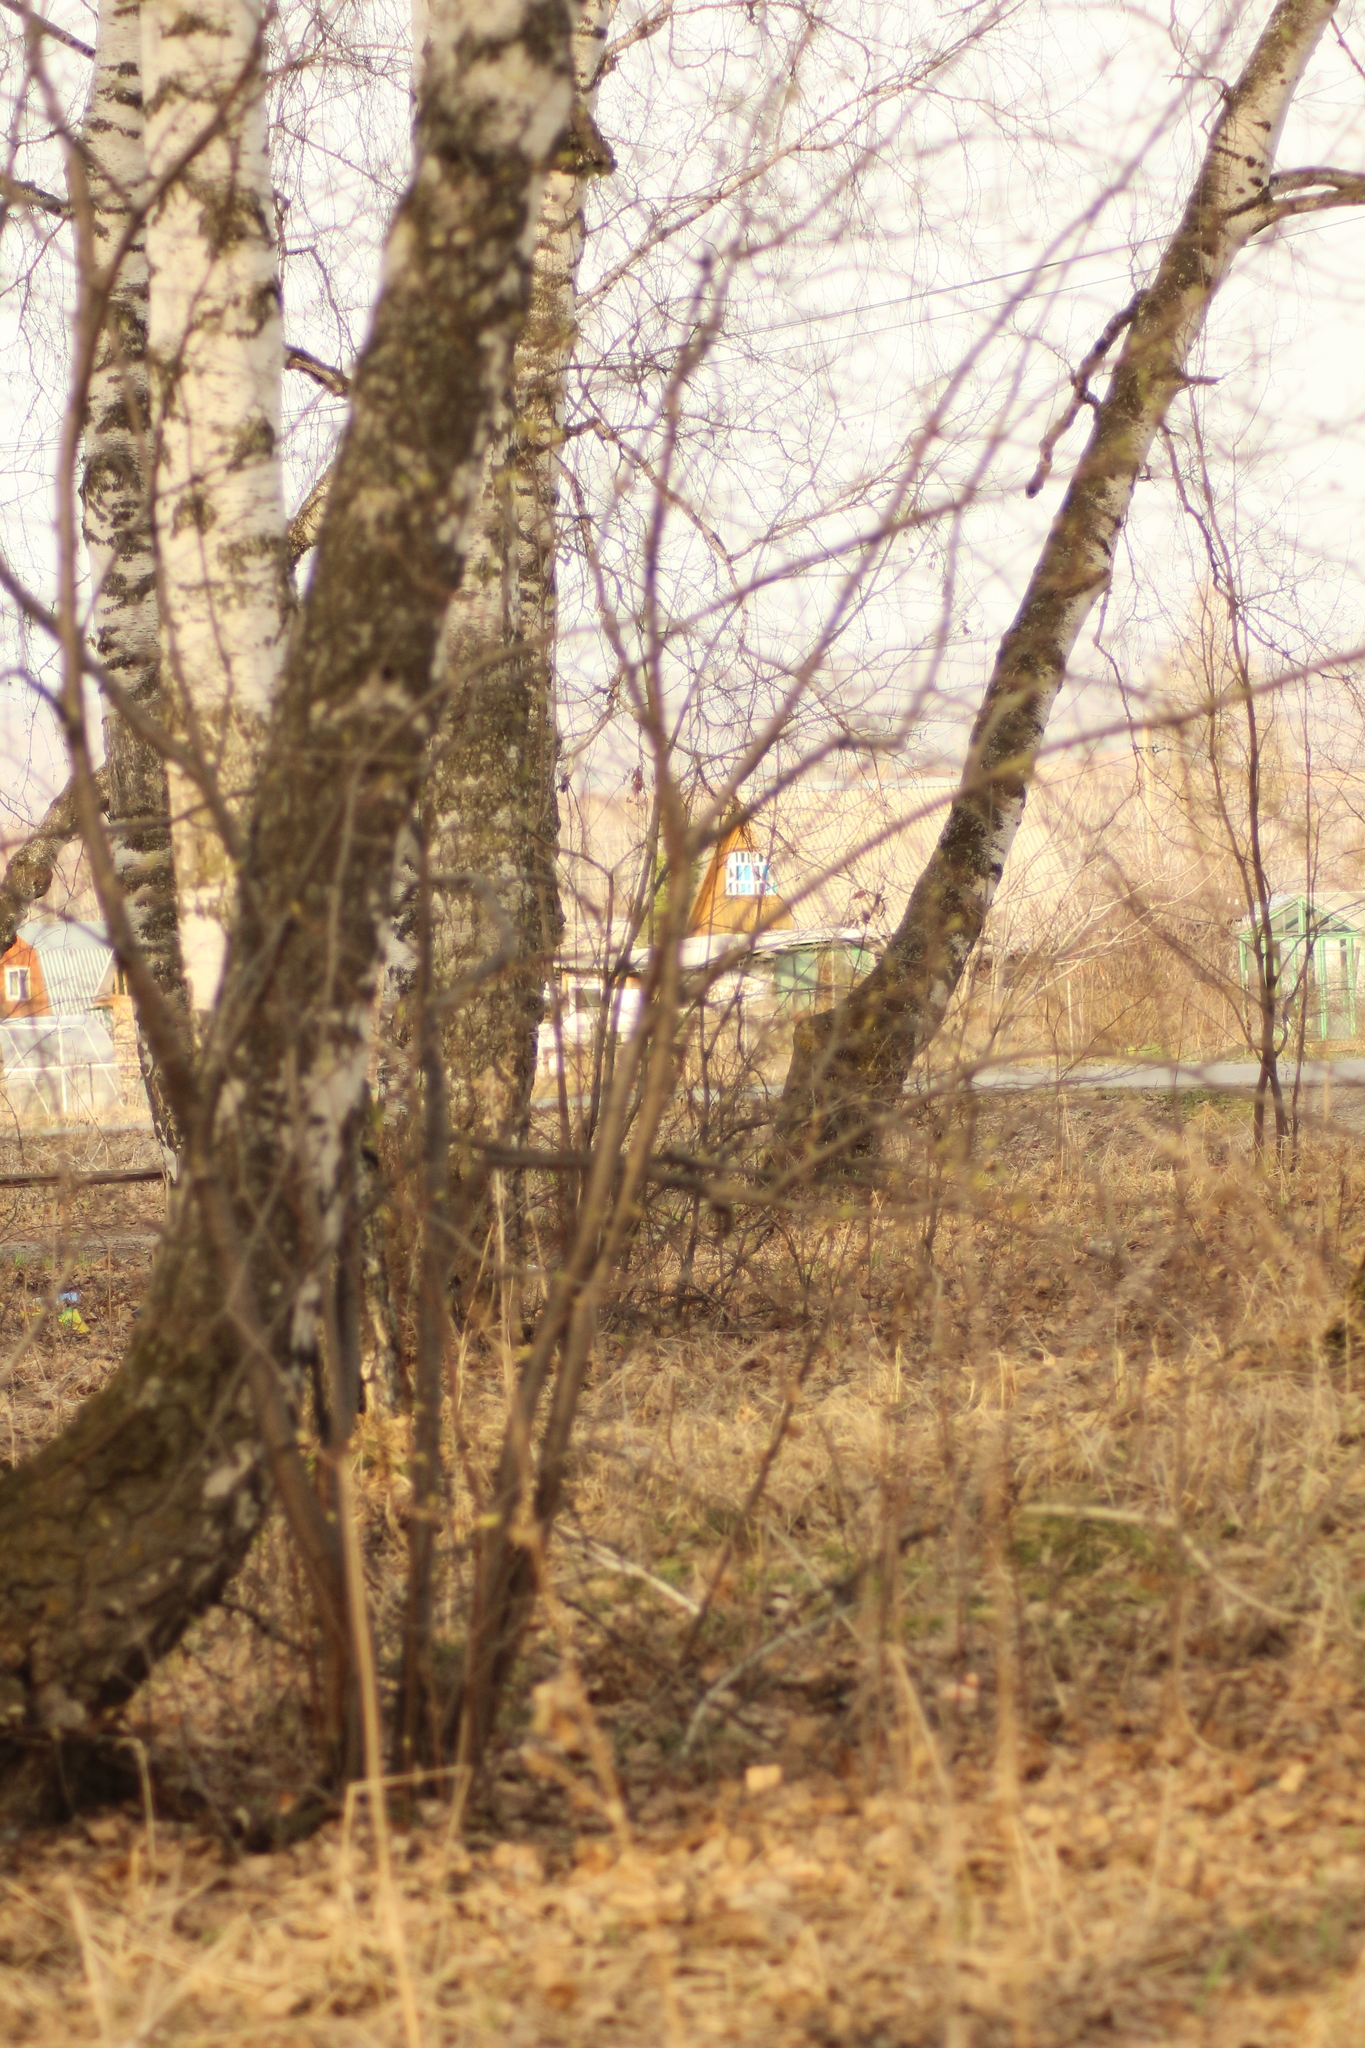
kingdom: Plantae
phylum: Tracheophyta
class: Magnoliopsida
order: Rosales
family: Rosaceae
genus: Prunus
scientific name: Prunus padus
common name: Bird cherry
